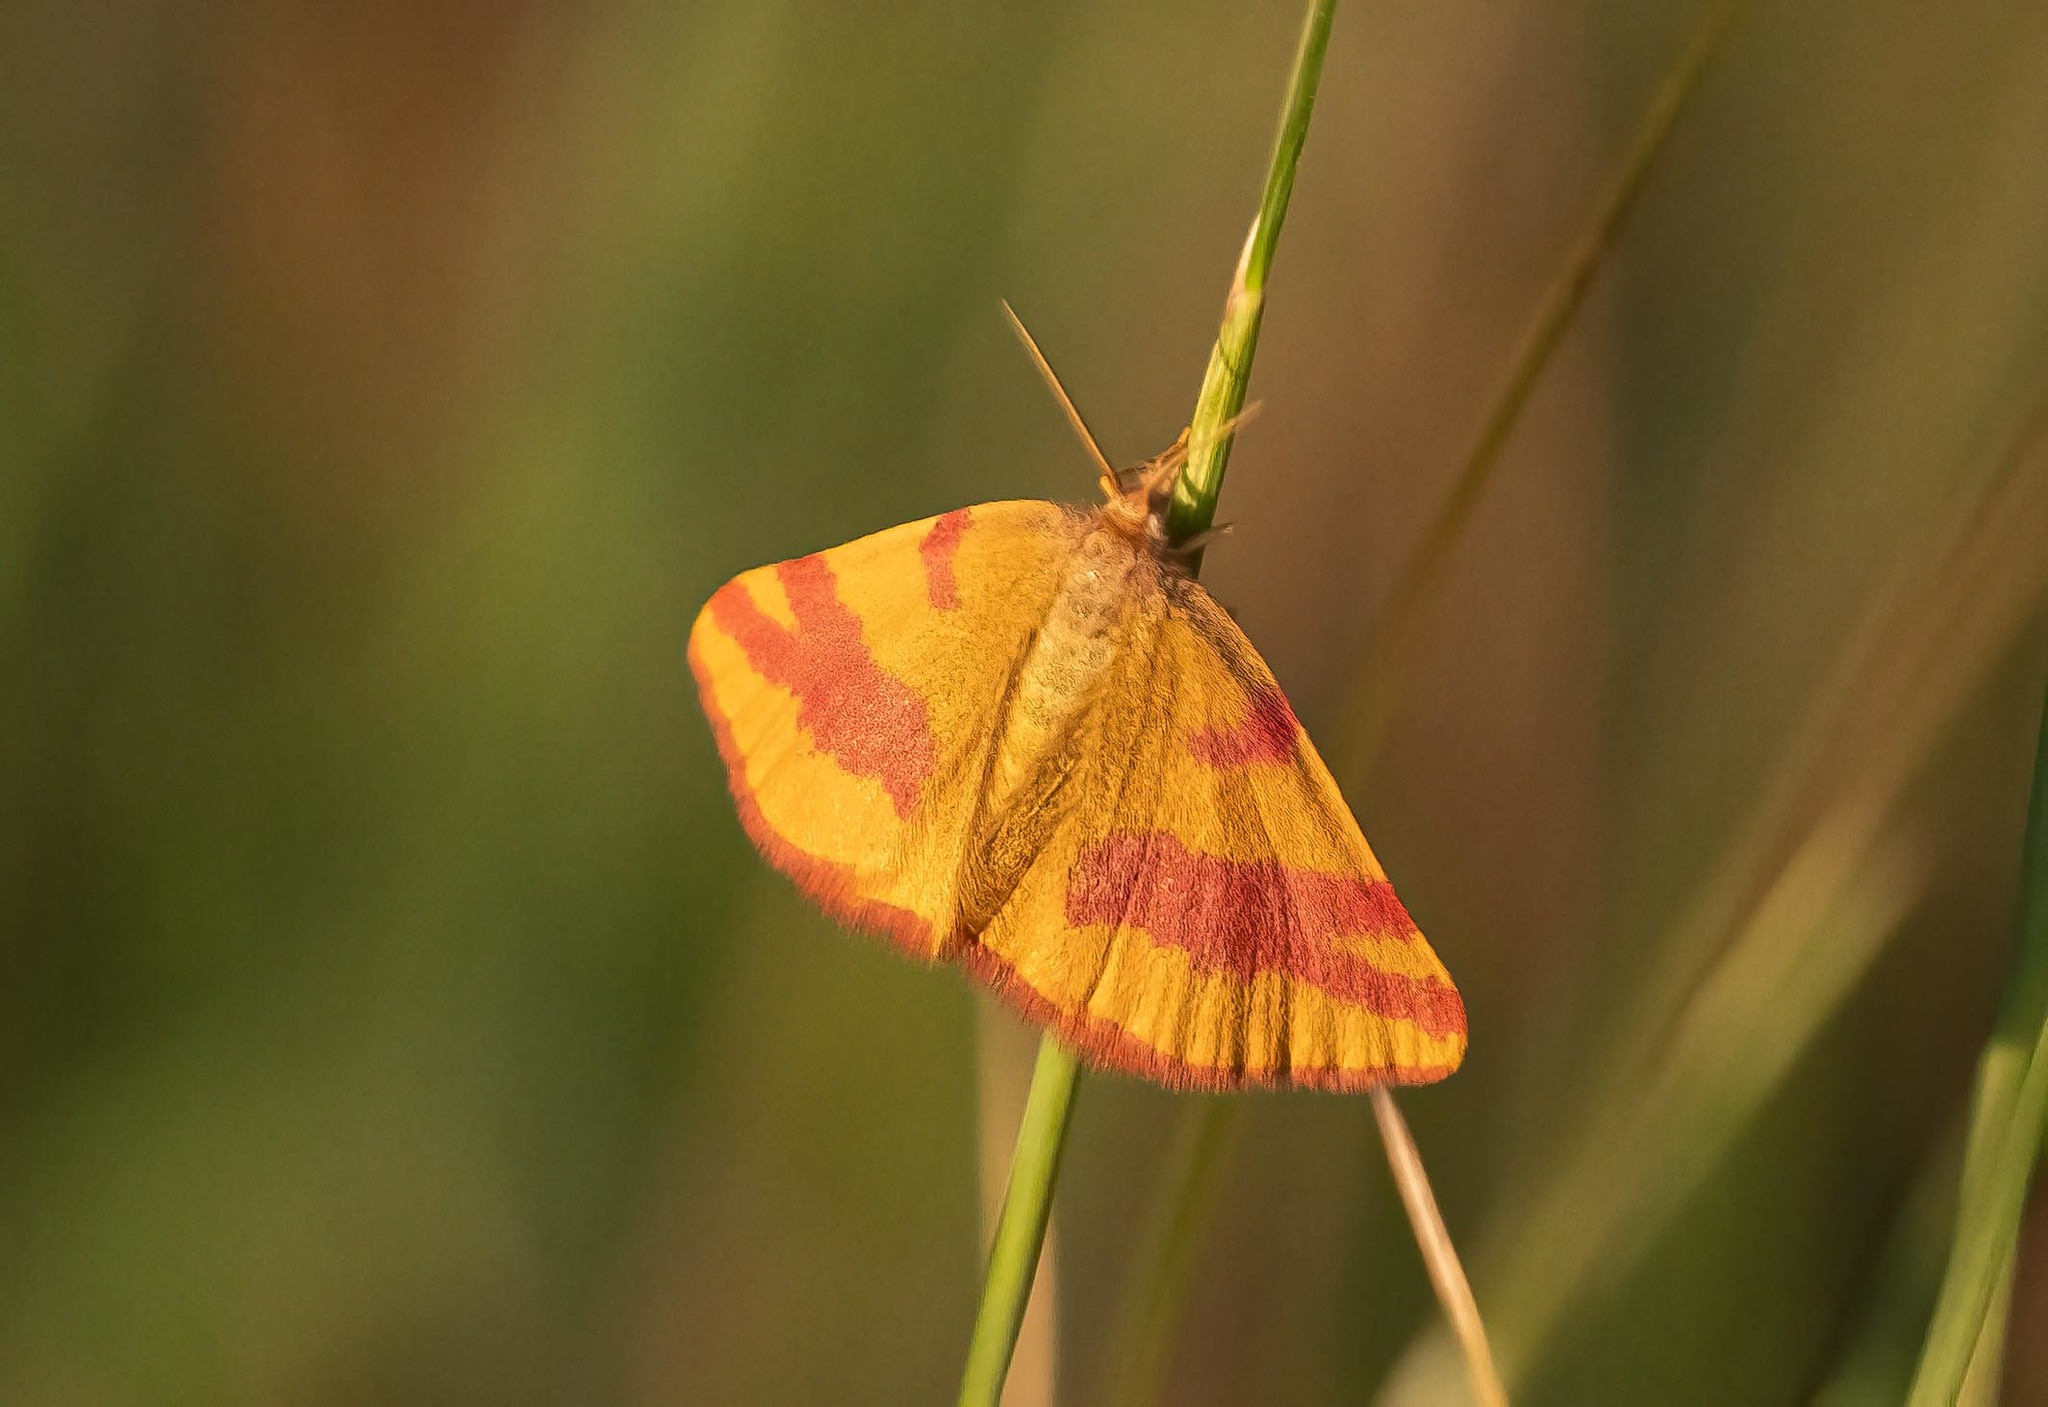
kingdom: Animalia
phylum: Arthropoda
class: Insecta
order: Lepidoptera
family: Geometridae
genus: Lythria
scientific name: Lythria cruentaria
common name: Purple-barred yellow
